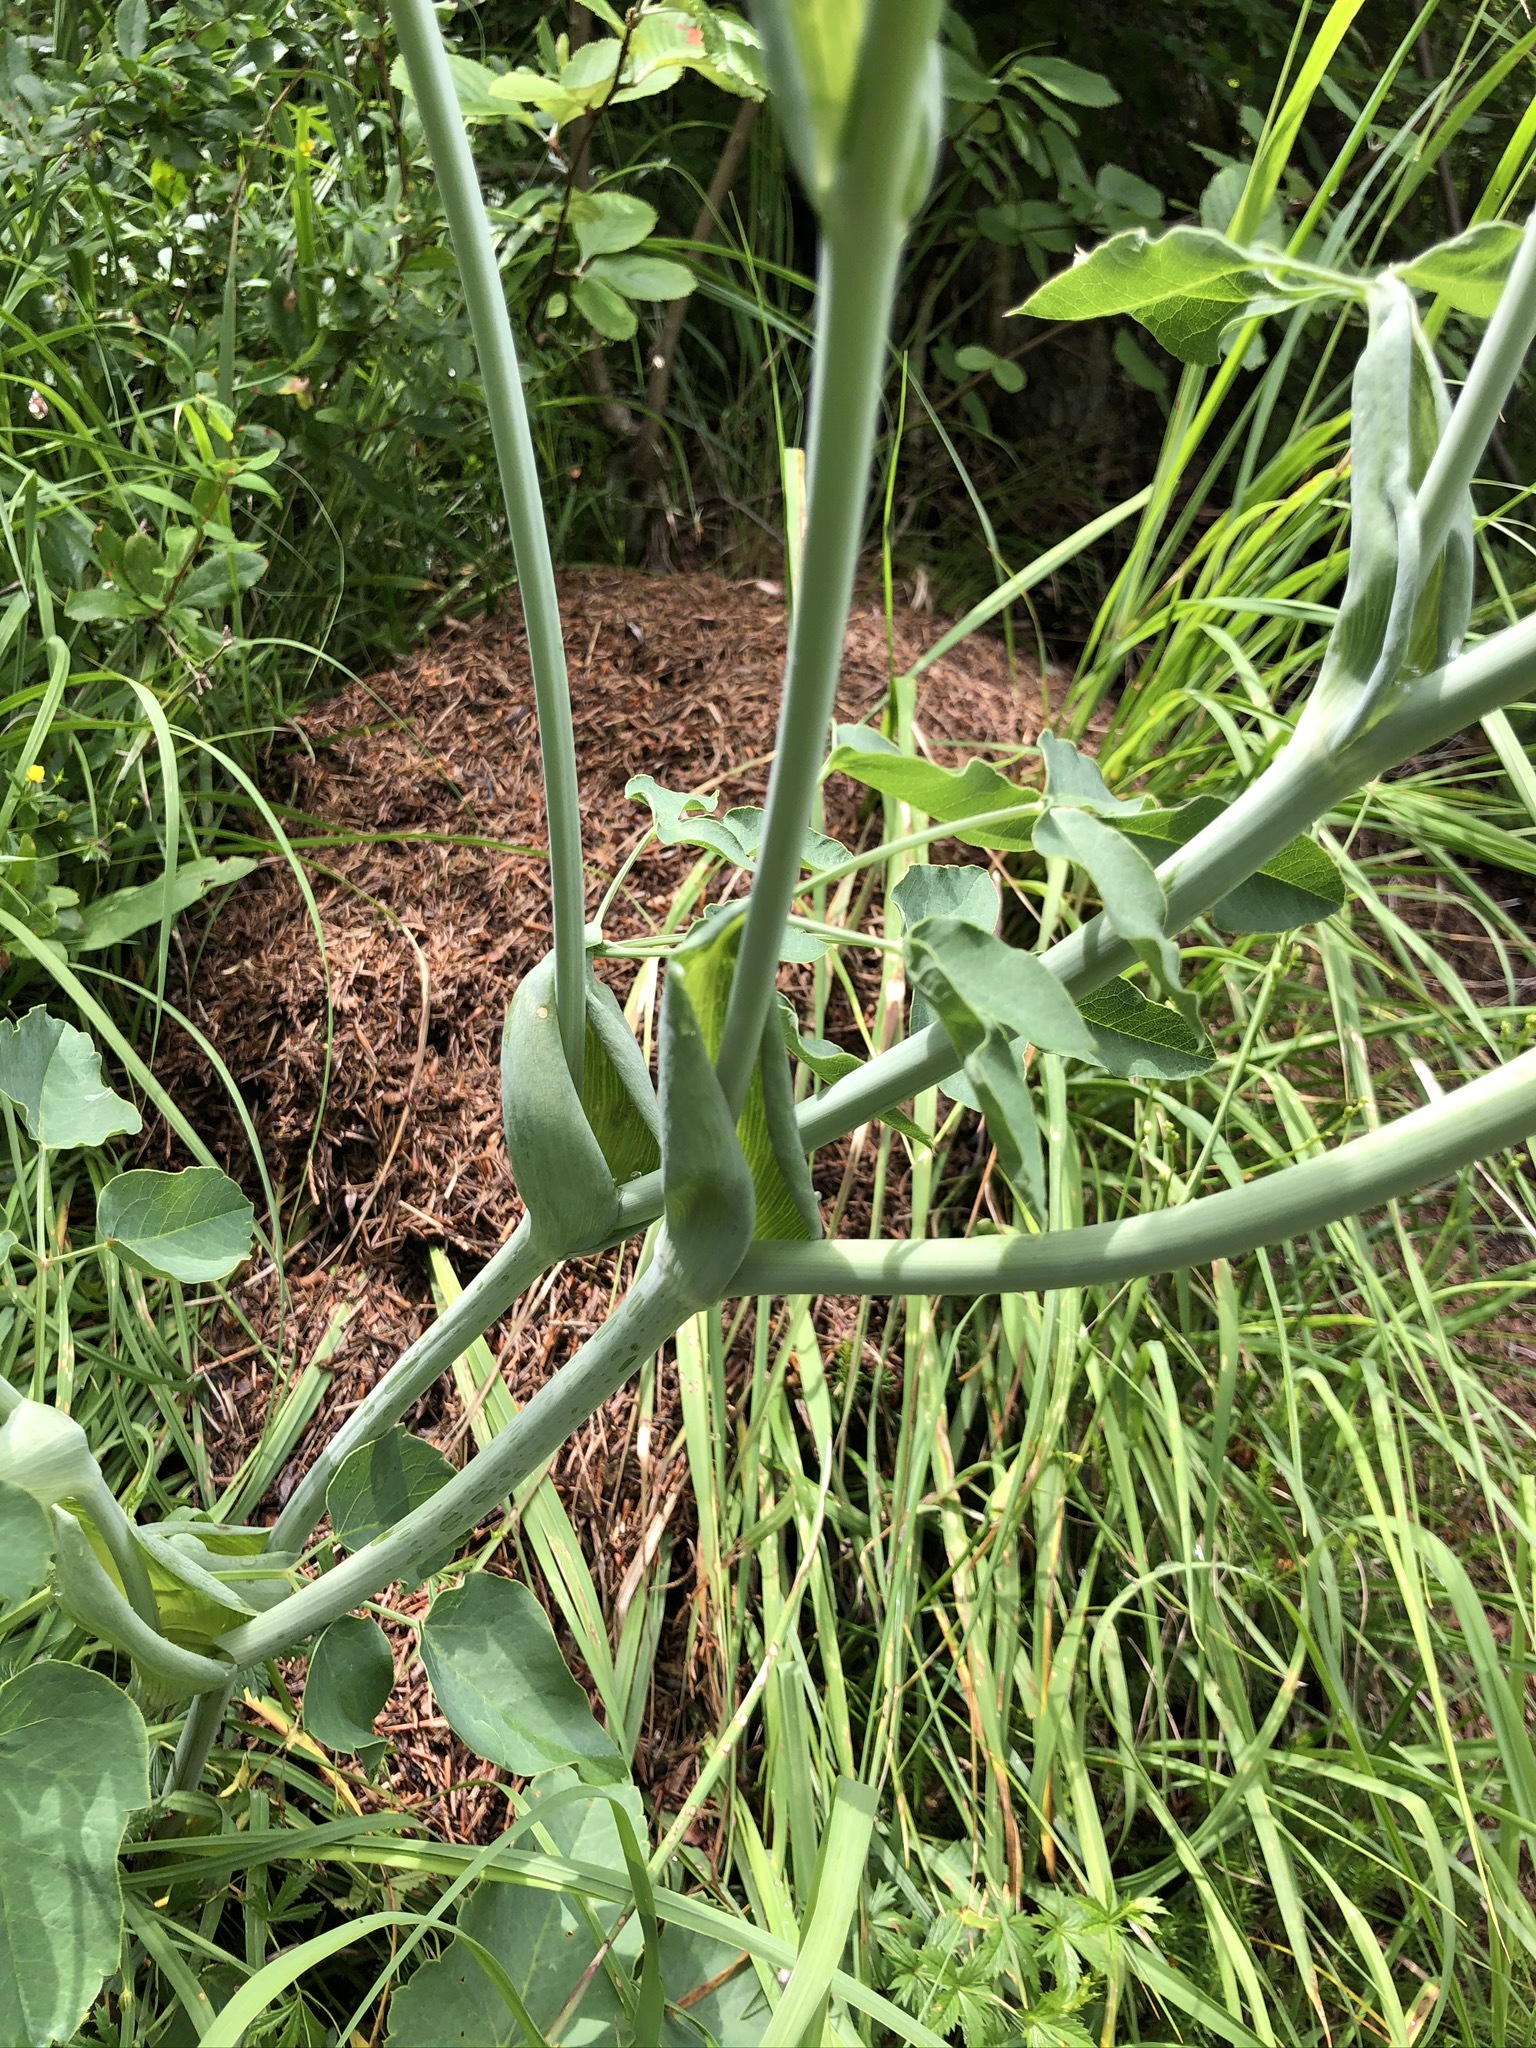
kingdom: Plantae
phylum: Tracheophyta
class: Magnoliopsida
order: Apiales
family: Apiaceae
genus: Laserpitium
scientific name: Laserpitium latifolium
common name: Broadleaf sermountain
